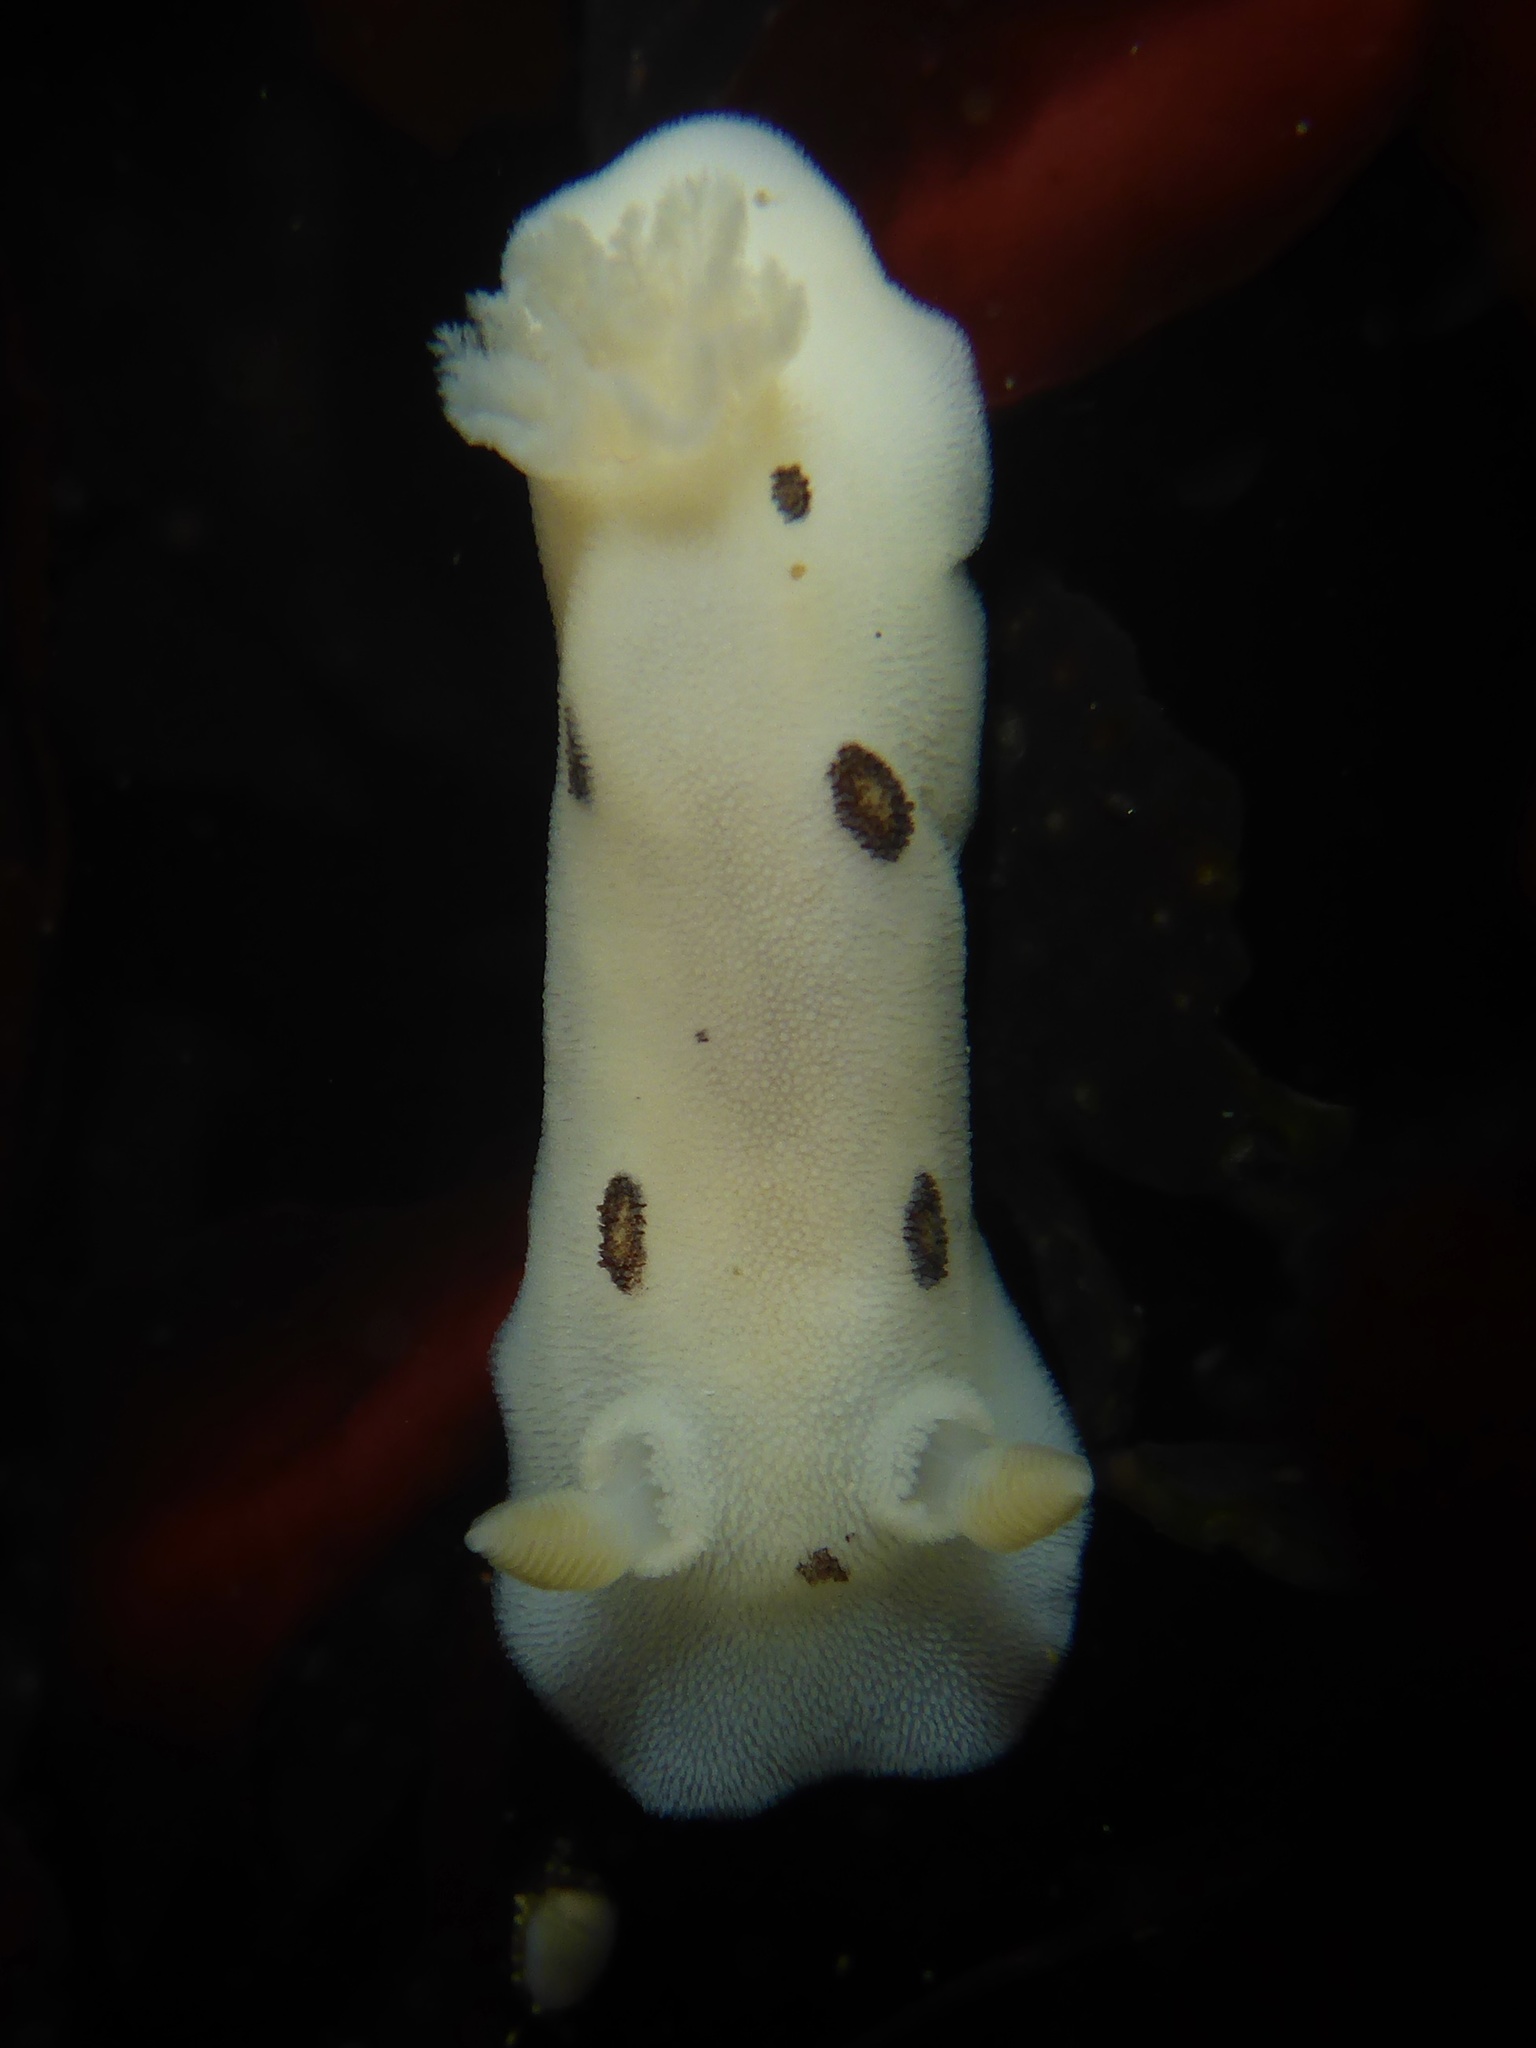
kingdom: Animalia
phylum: Mollusca
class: Gastropoda
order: Nudibranchia
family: Discodorididae
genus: Diaulula
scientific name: Diaulula sandiegensis
